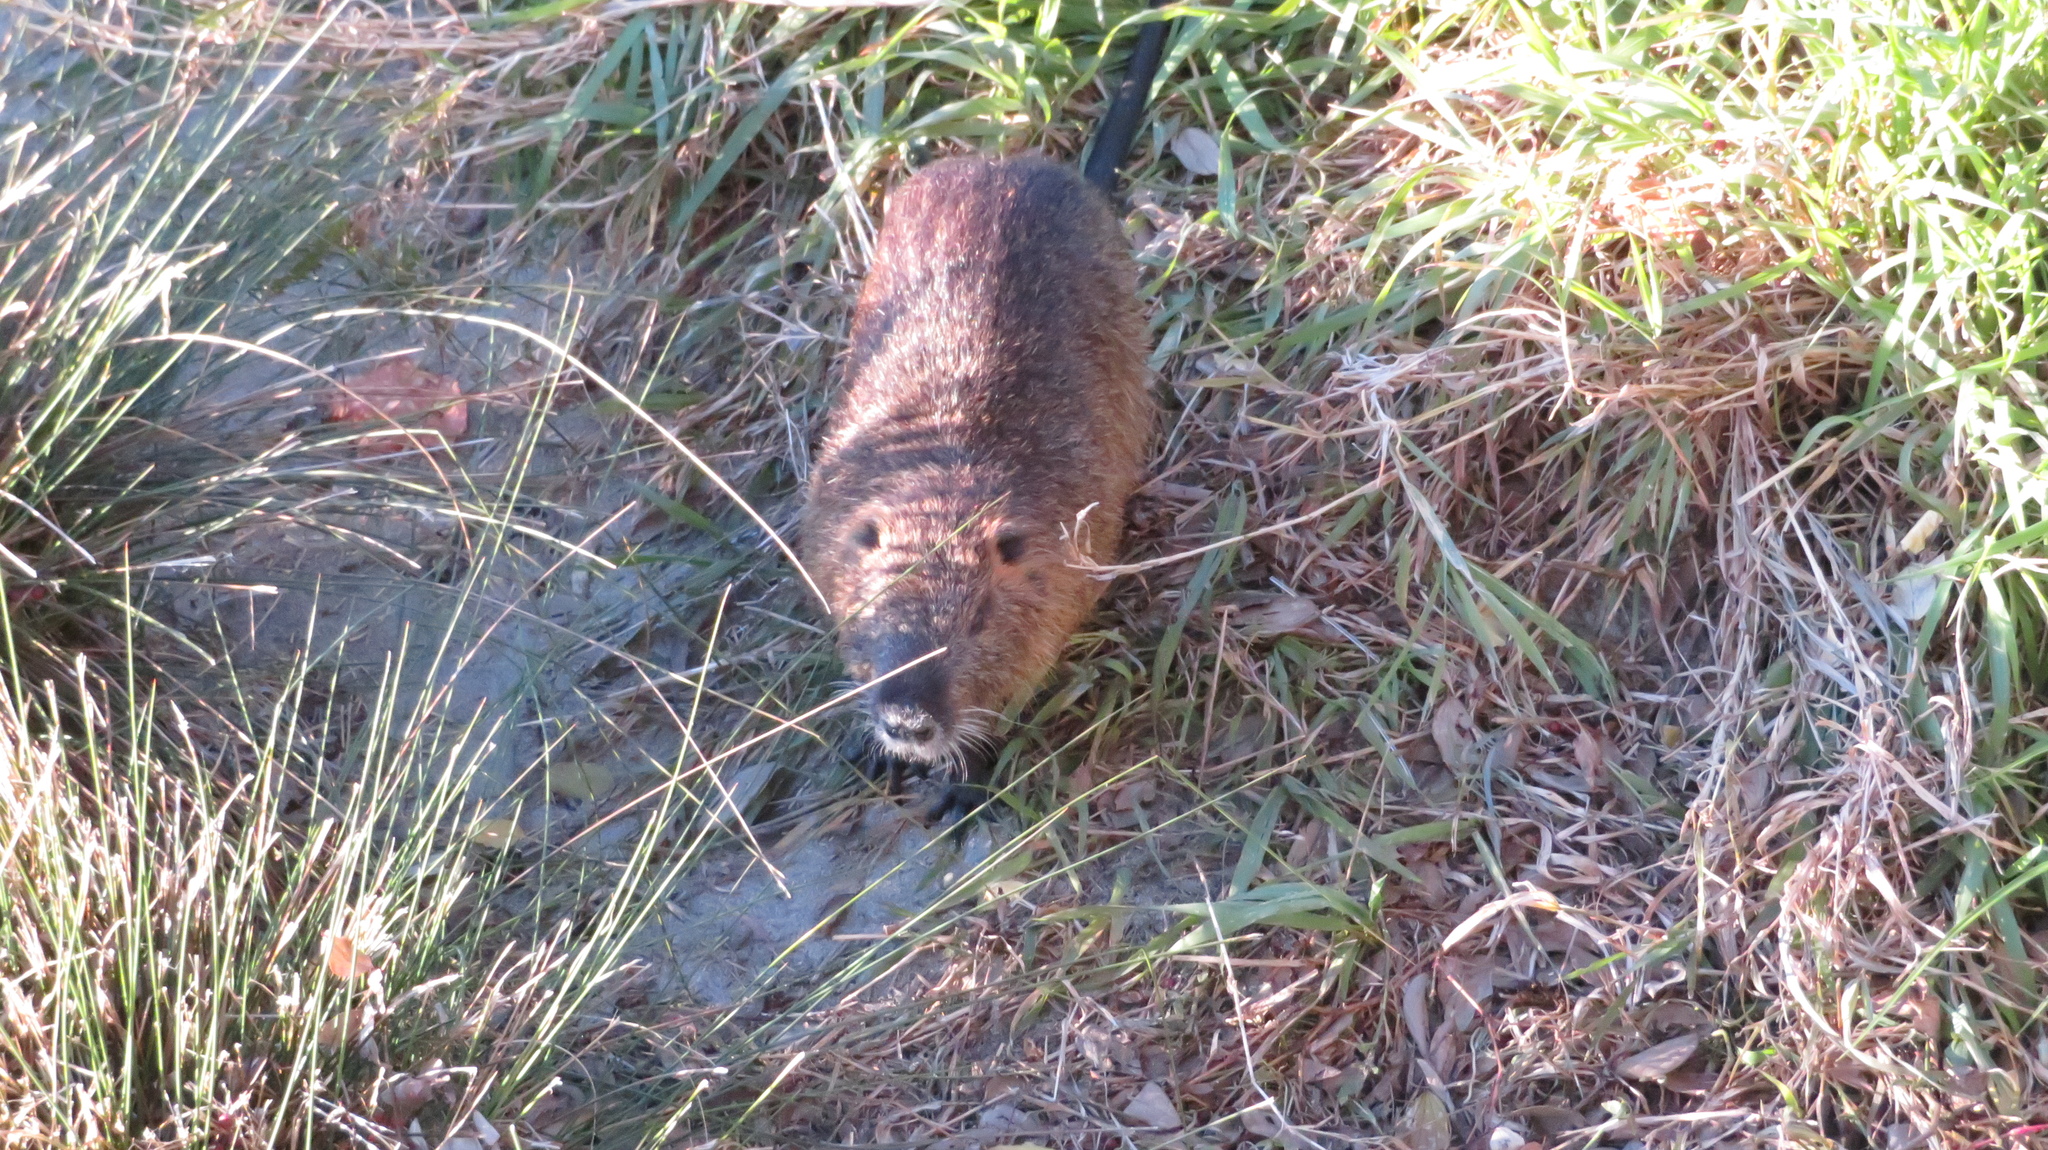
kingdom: Animalia
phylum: Chordata
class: Mammalia
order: Rodentia
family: Myocastoridae
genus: Myocastor
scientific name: Myocastor coypus
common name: Coypu
